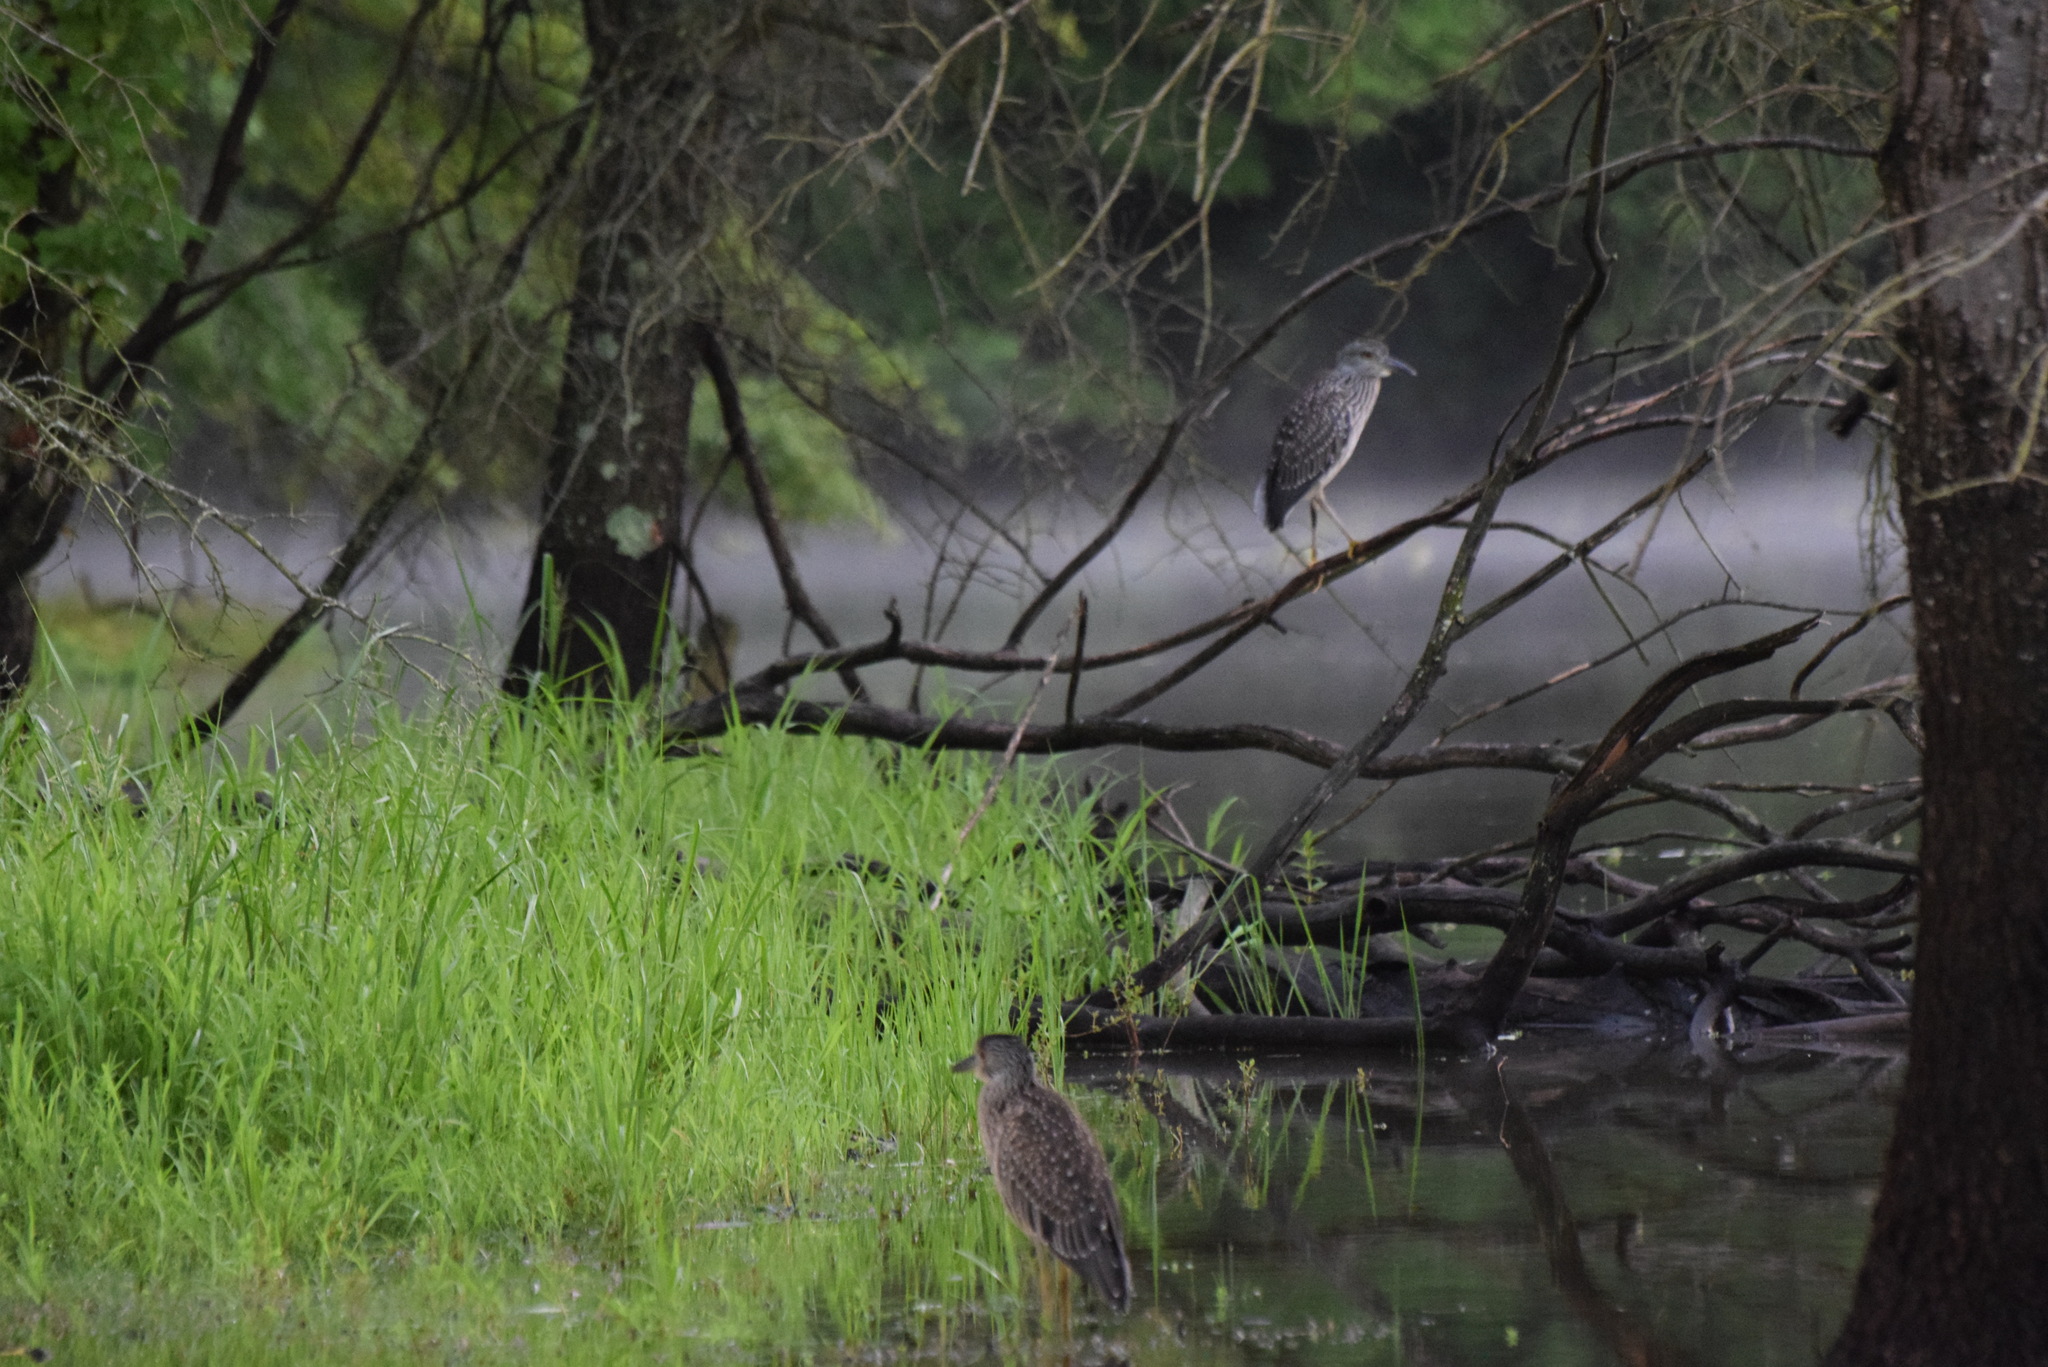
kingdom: Animalia
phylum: Chordata
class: Aves
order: Pelecaniformes
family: Ardeidae
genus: Nyctanassa
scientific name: Nyctanassa violacea
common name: Yellow-crowned night heron
